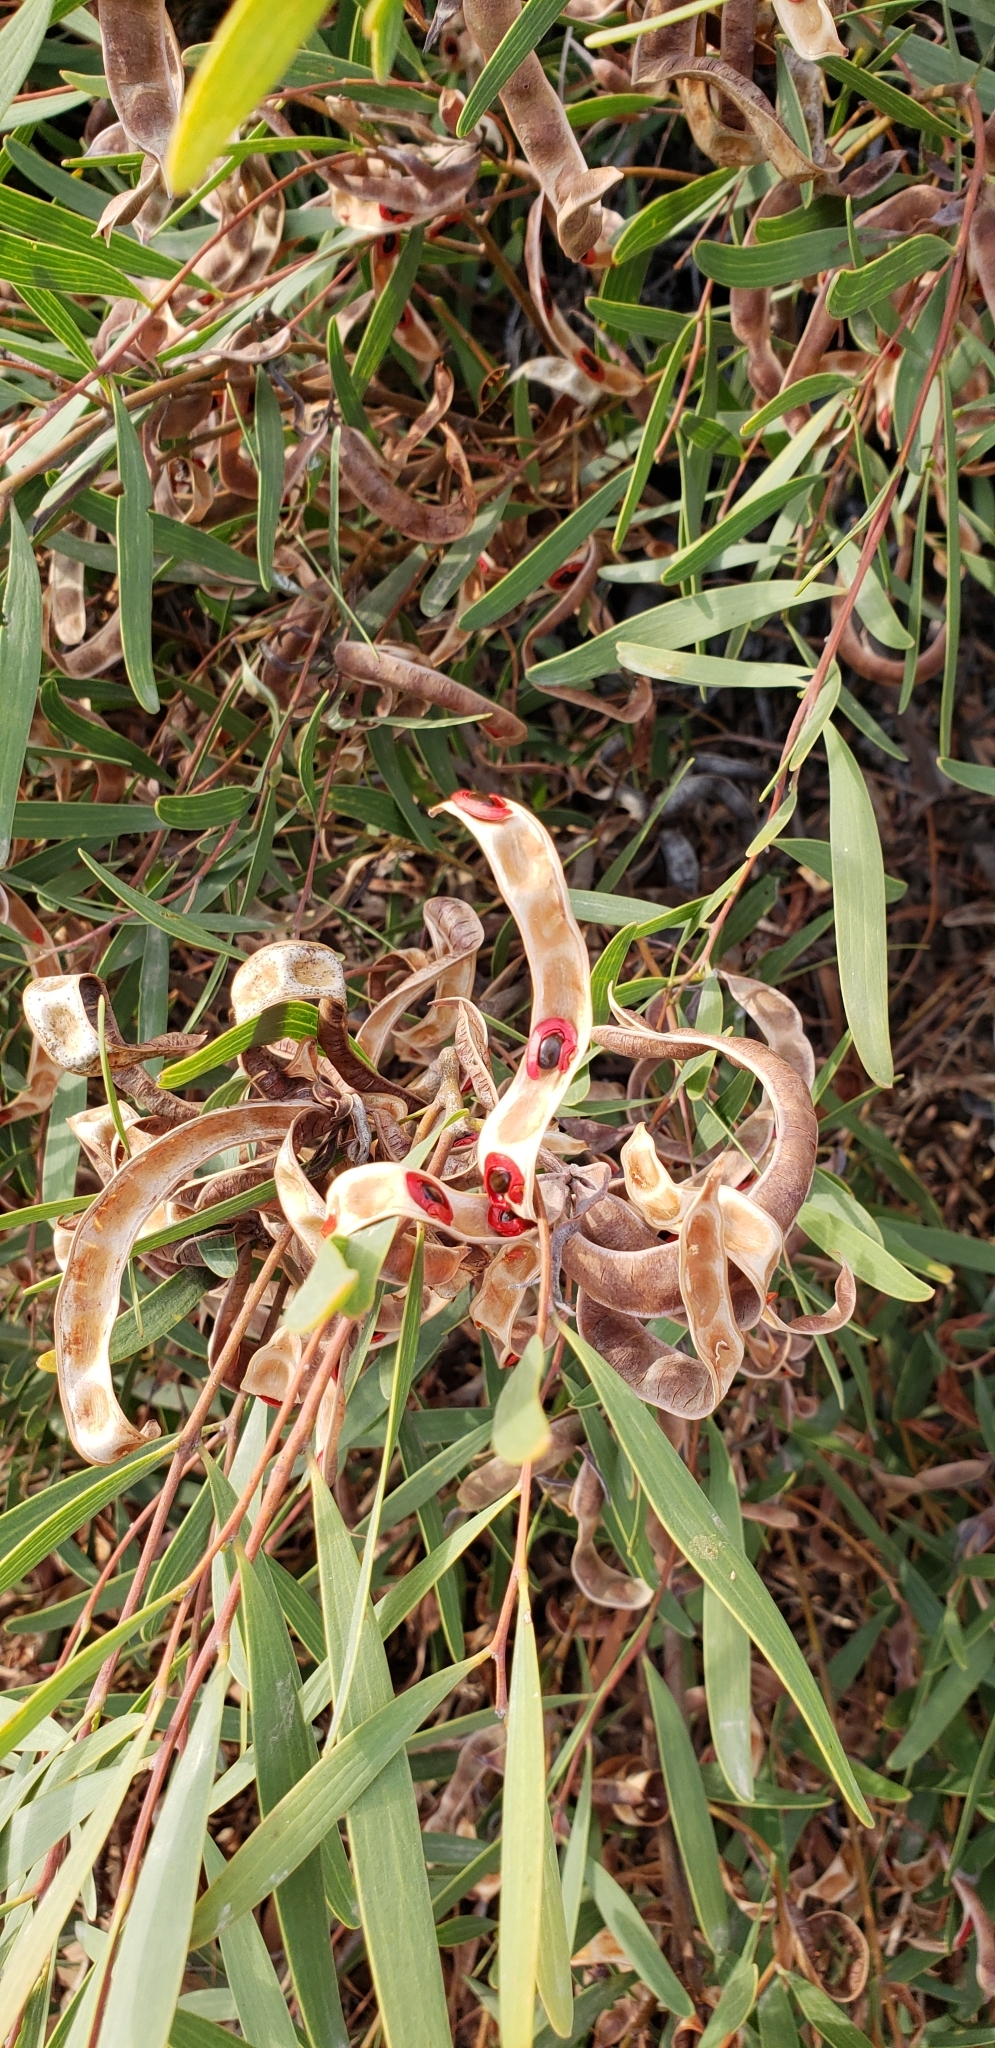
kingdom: Plantae
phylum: Tracheophyta
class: Magnoliopsida
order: Fabales
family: Fabaceae
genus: Acacia
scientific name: Acacia cyclops
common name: Coastal wattle
